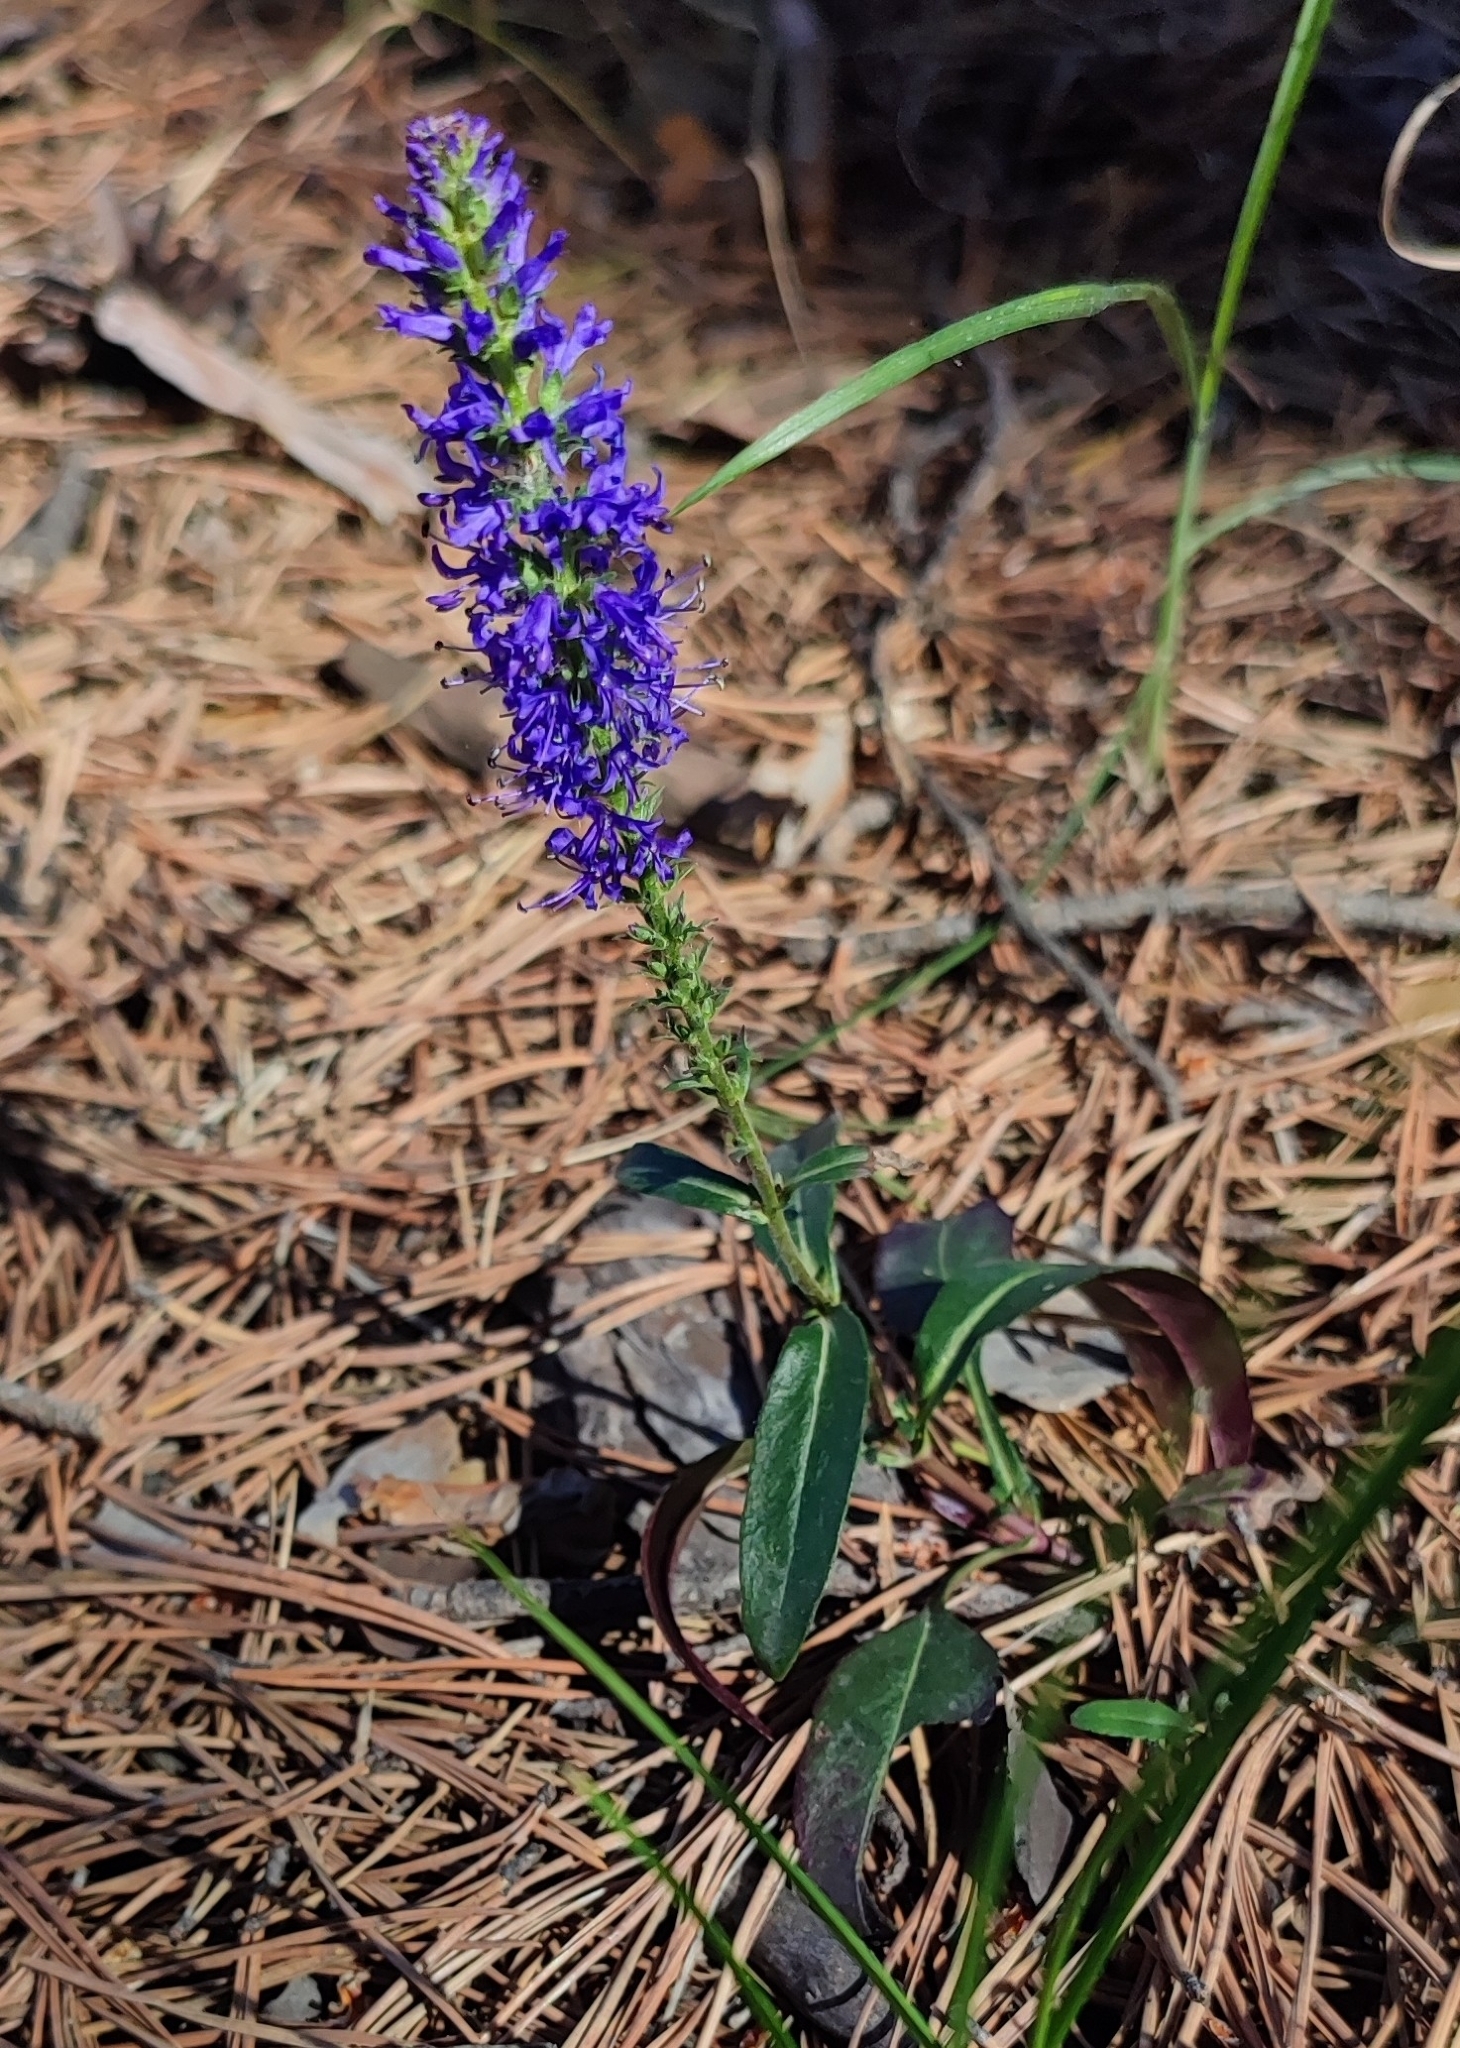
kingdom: Plantae
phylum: Tracheophyta
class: Magnoliopsida
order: Lamiales
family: Plantaginaceae
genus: Veronica
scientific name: Veronica spicata
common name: Spiked speedwell
